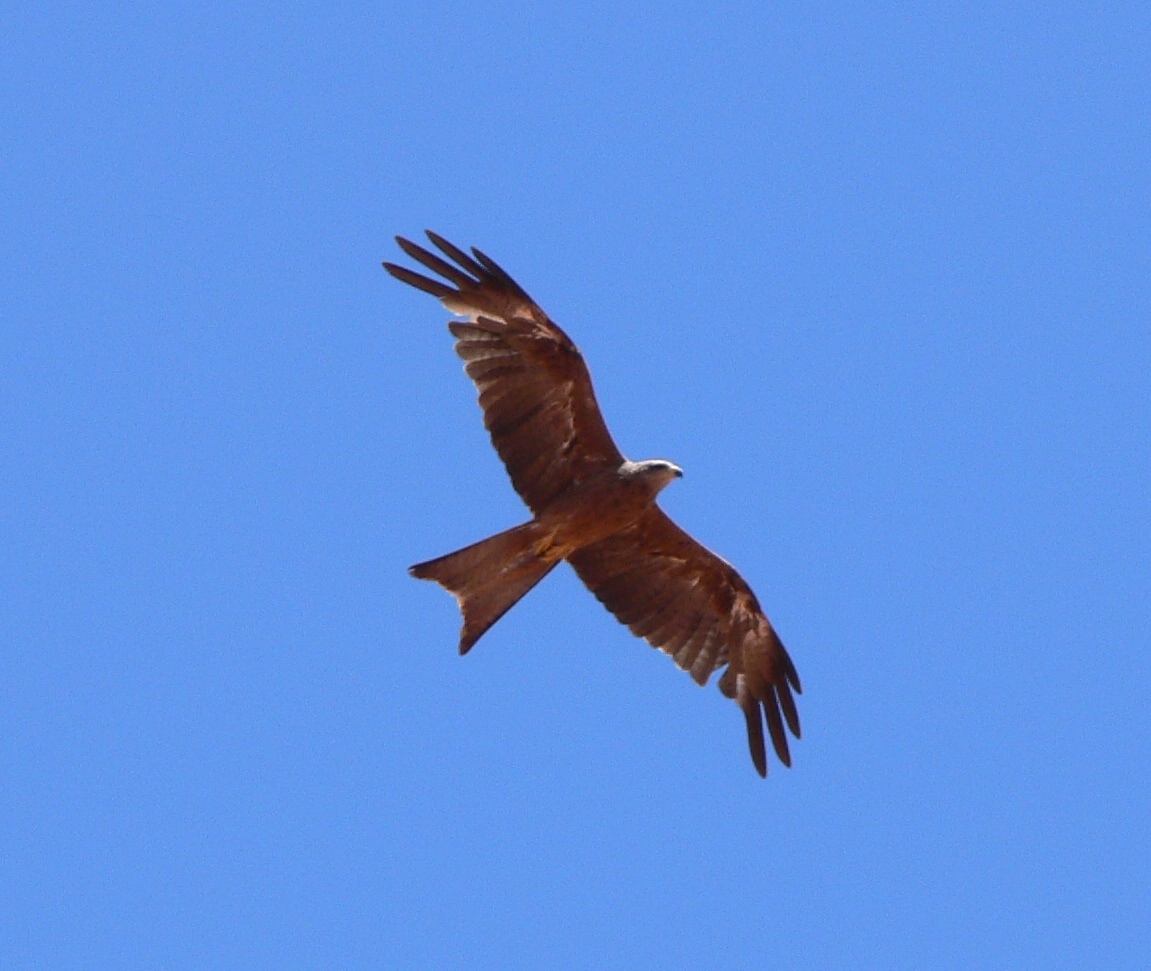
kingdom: Animalia
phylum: Chordata
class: Aves
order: Accipitriformes
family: Accipitridae
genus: Milvus
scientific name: Milvus migrans
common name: Black kite
